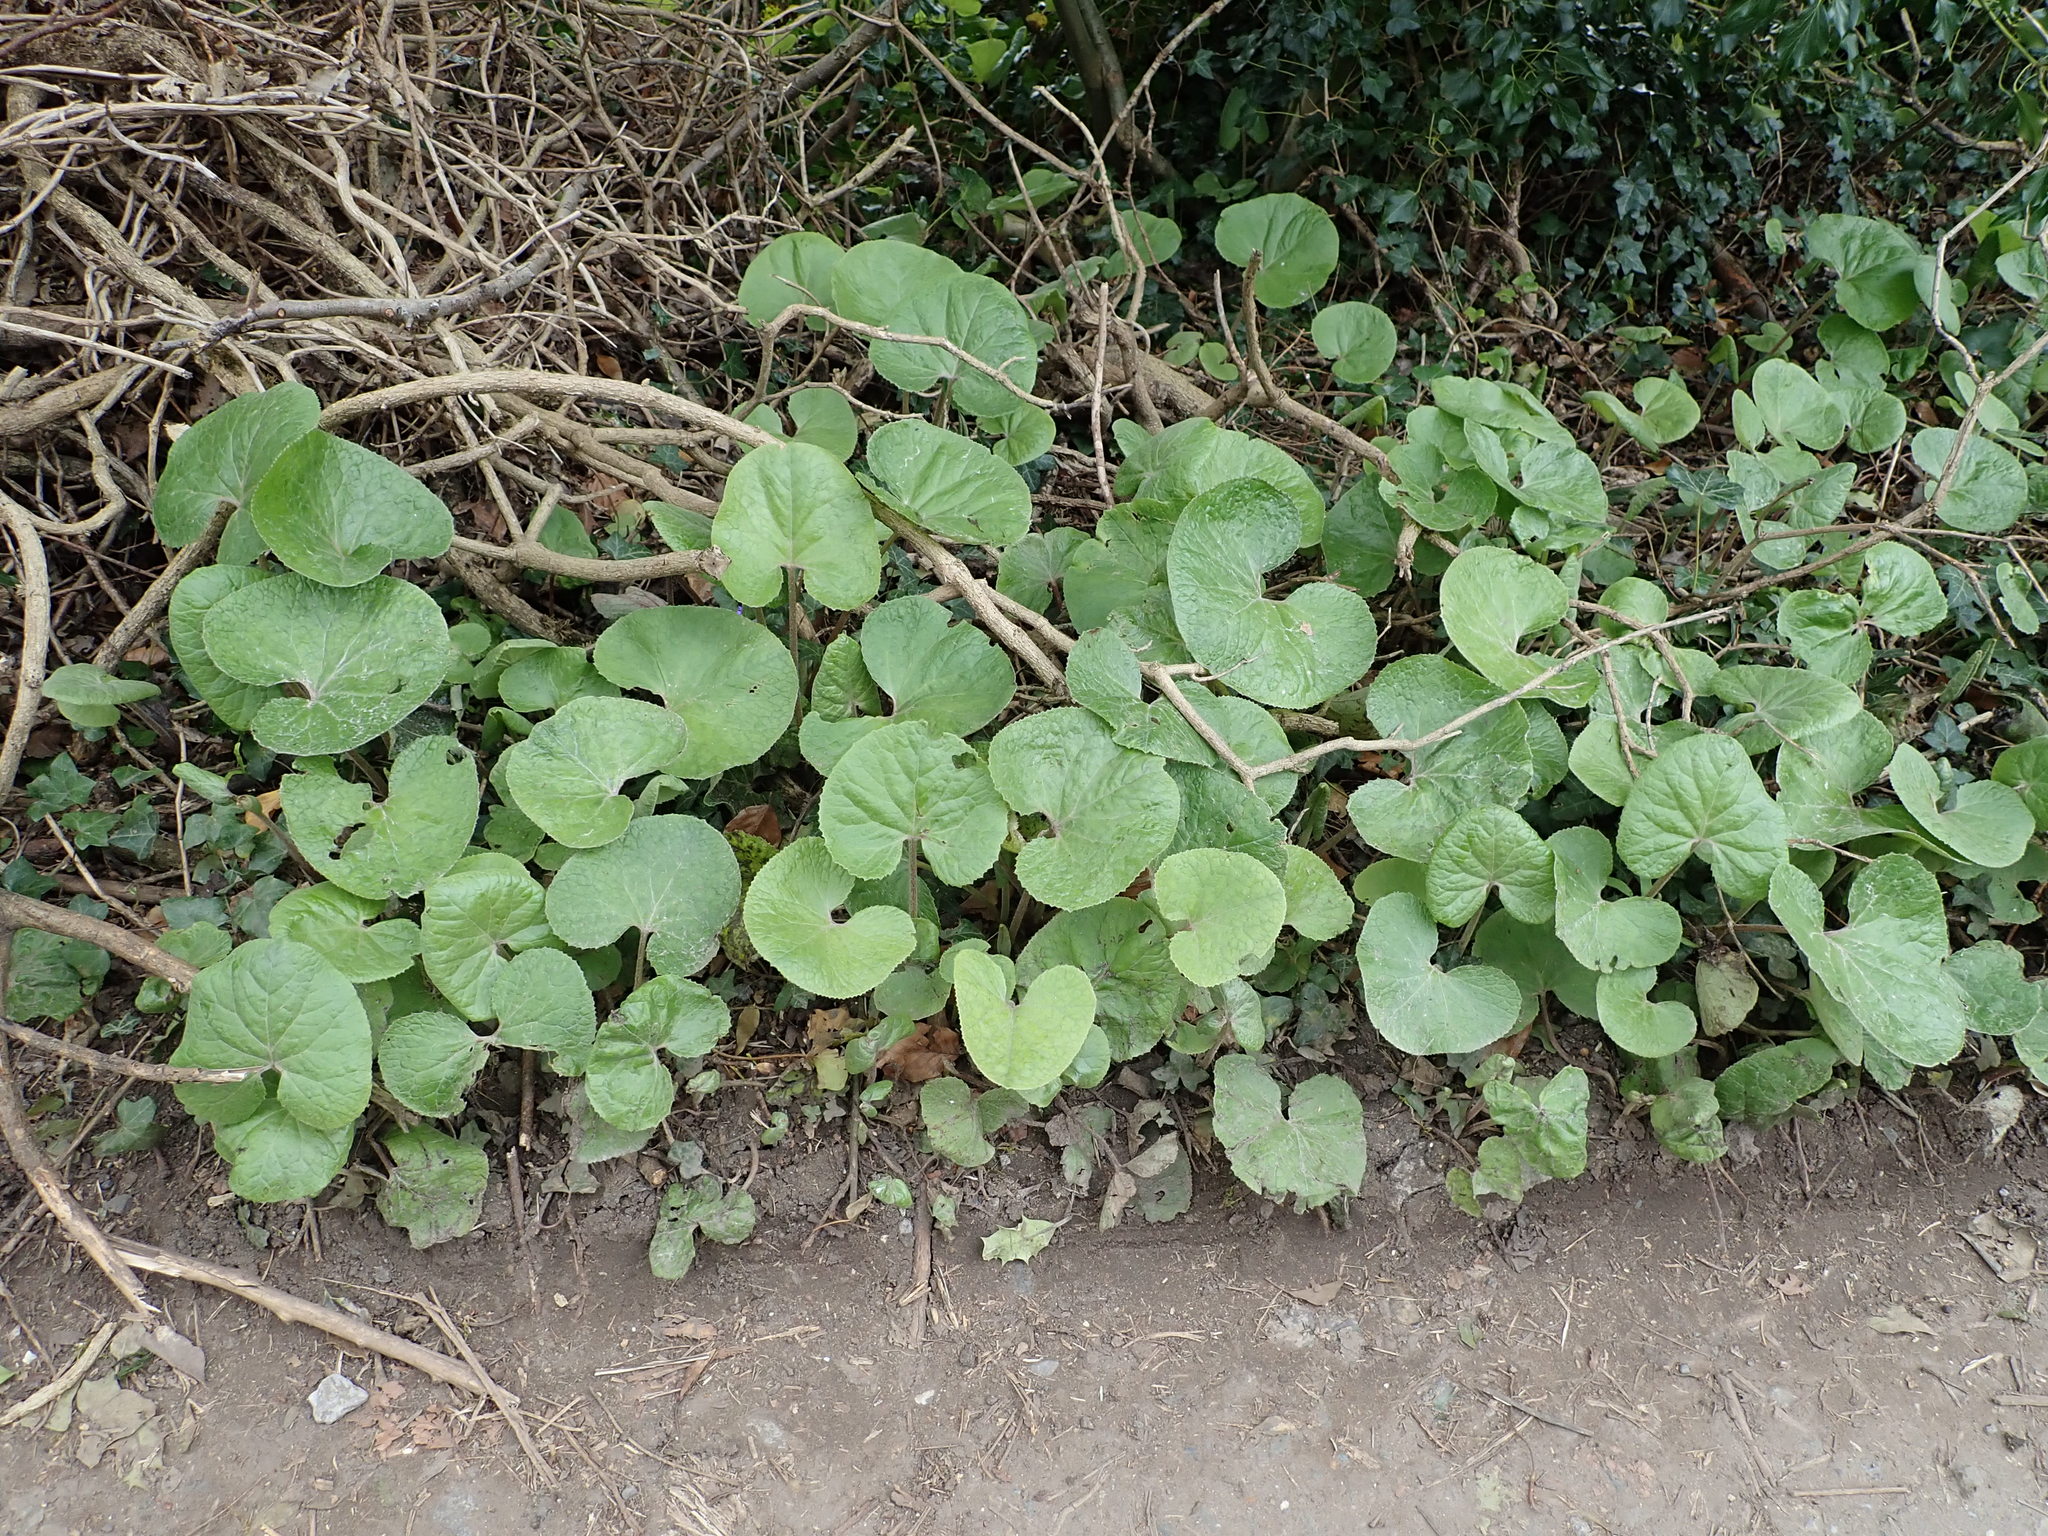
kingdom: Plantae
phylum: Tracheophyta
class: Magnoliopsida
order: Asterales
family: Asteraceae
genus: Petasites
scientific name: Petasites pyrenaicus
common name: Winter heliotrope
